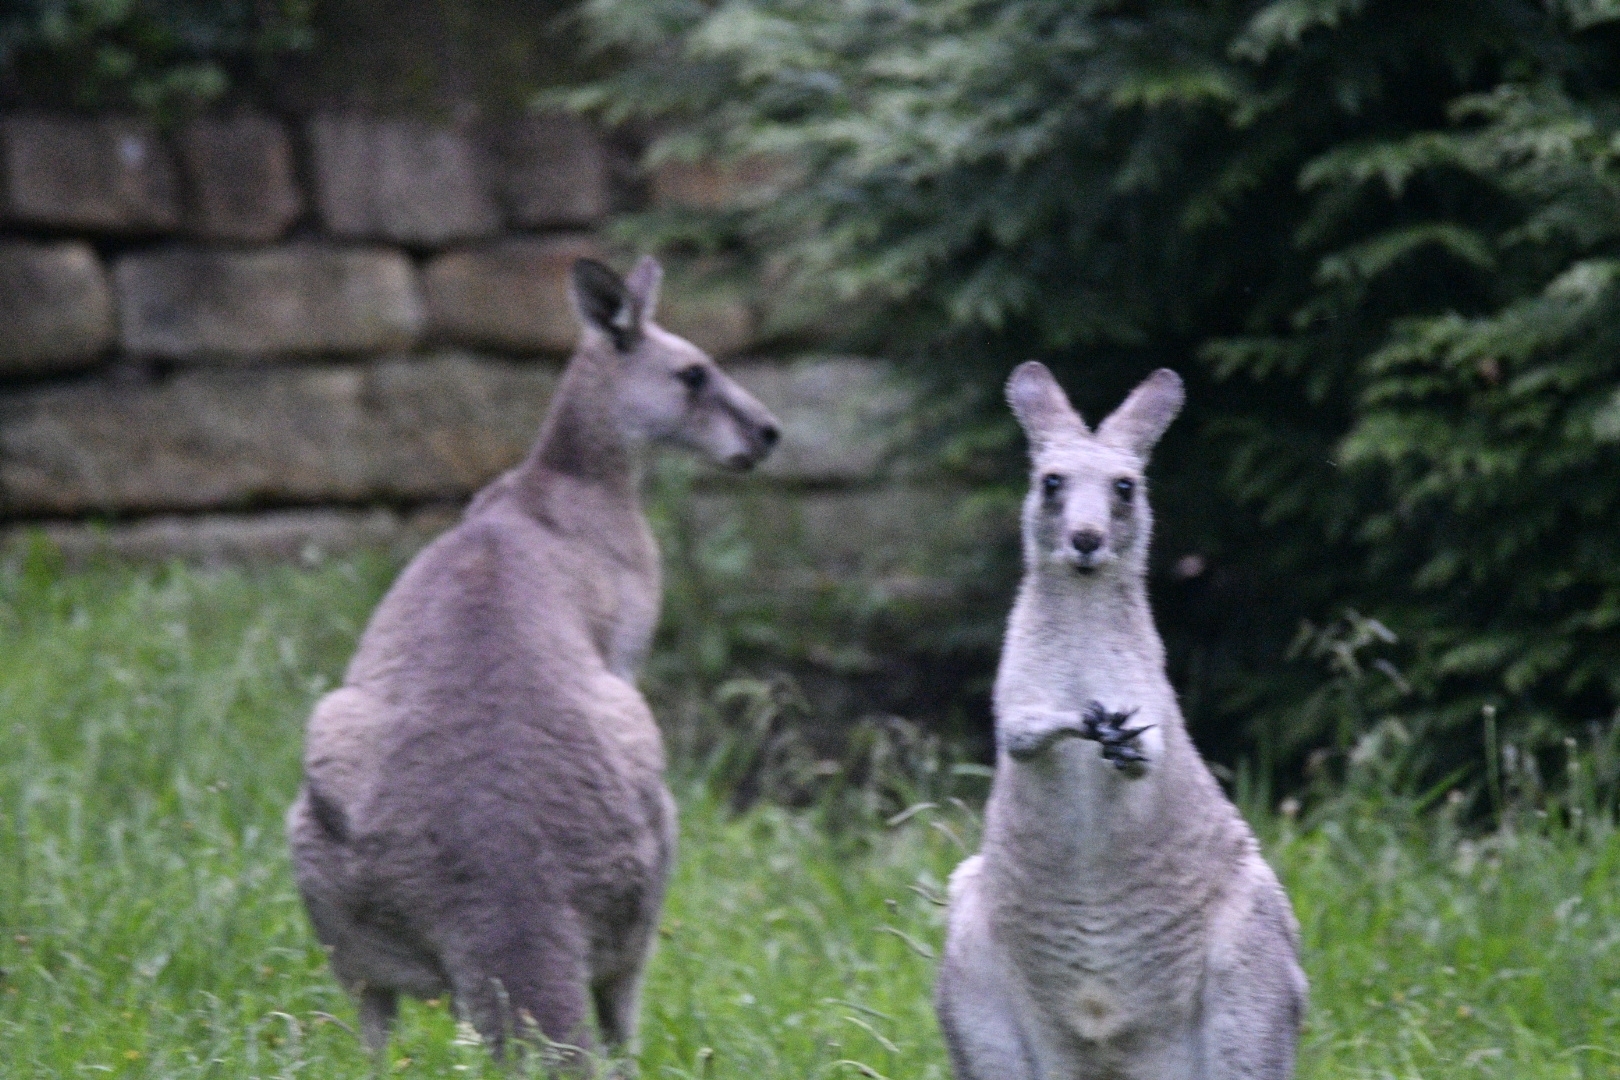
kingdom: Animalia
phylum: Chordata
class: Mammalia
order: Diprotodontia
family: Macropodidae
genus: Macropus
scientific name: Macropus giganteus
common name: Eastern grey kangaroo
